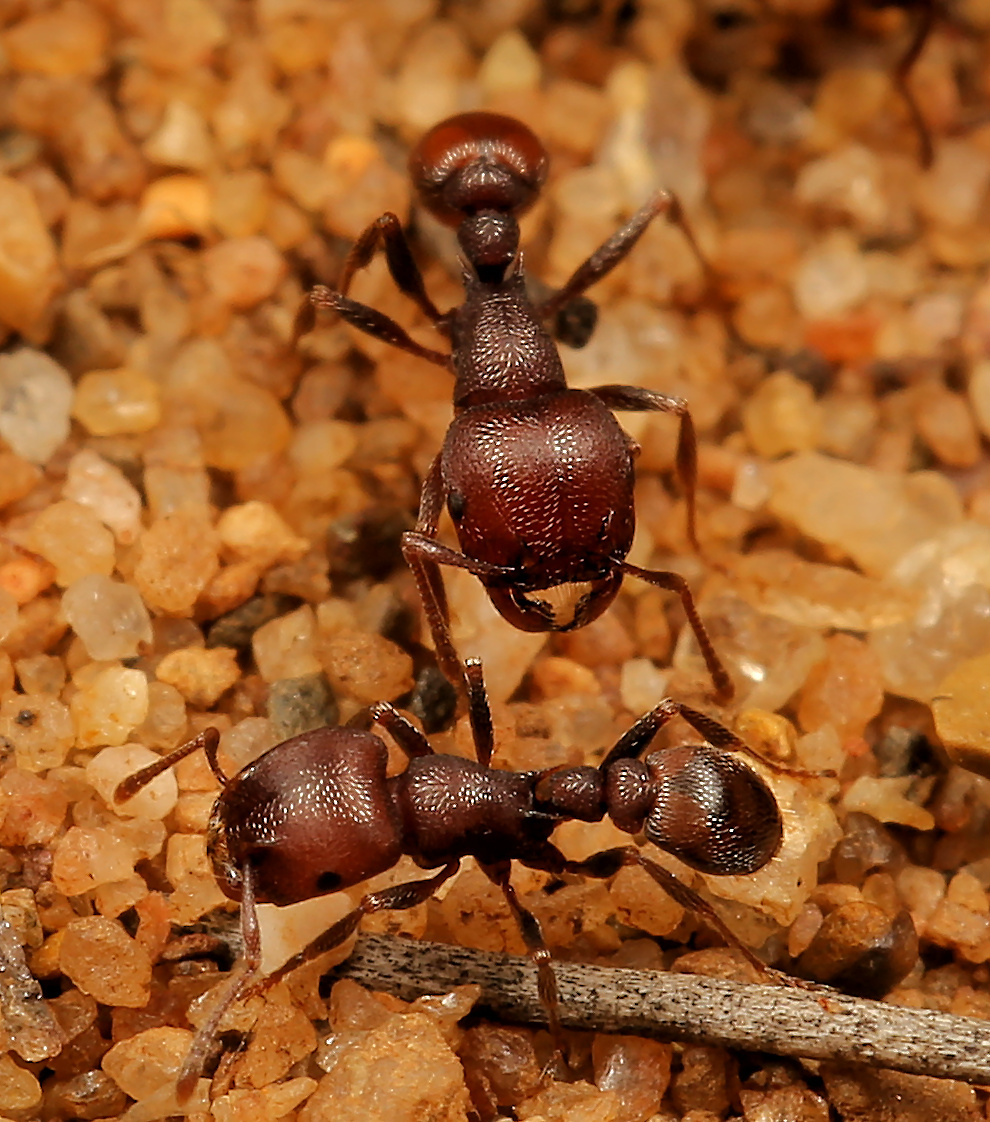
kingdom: Animalia
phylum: Arthropoda
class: Insecta
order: Hymenoptera
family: Formicidae
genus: Tetramorium
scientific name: Tetramorium setuliferum
